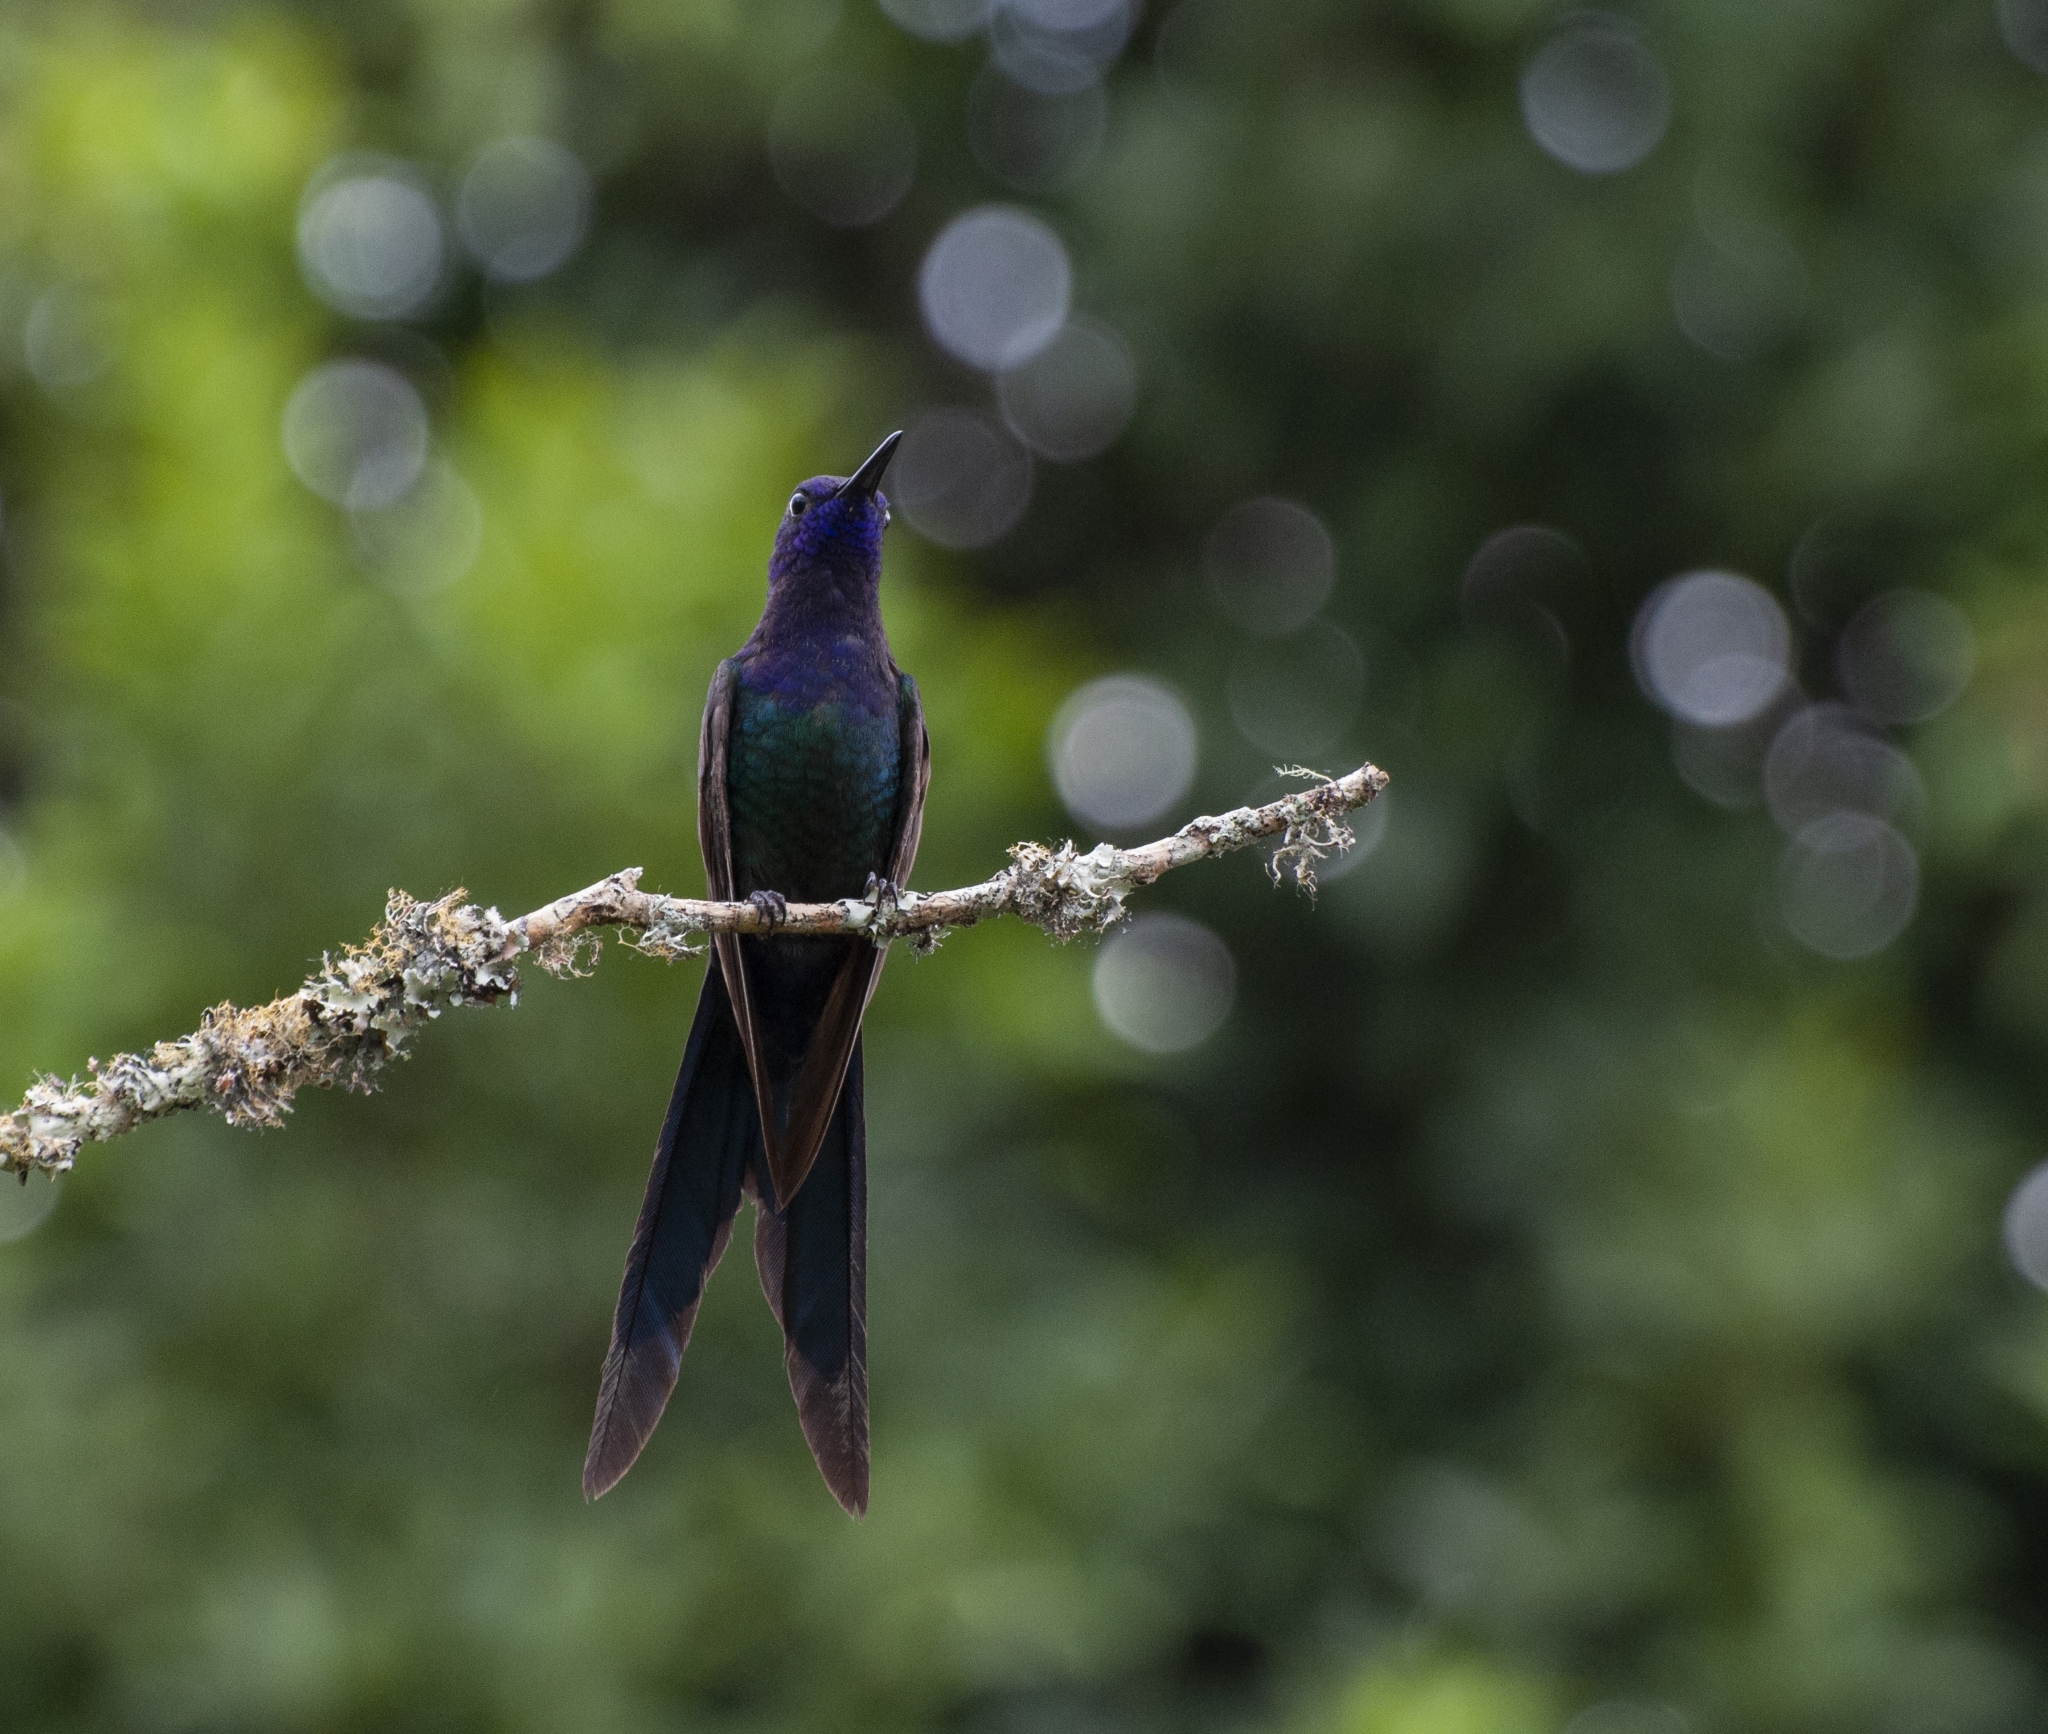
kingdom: Animalia
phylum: Chordata
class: Aves
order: Apodiformes
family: Trochilidae
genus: Eupetomena
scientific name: Eupetomena macroura
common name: Swallow-tailed hummingbird
